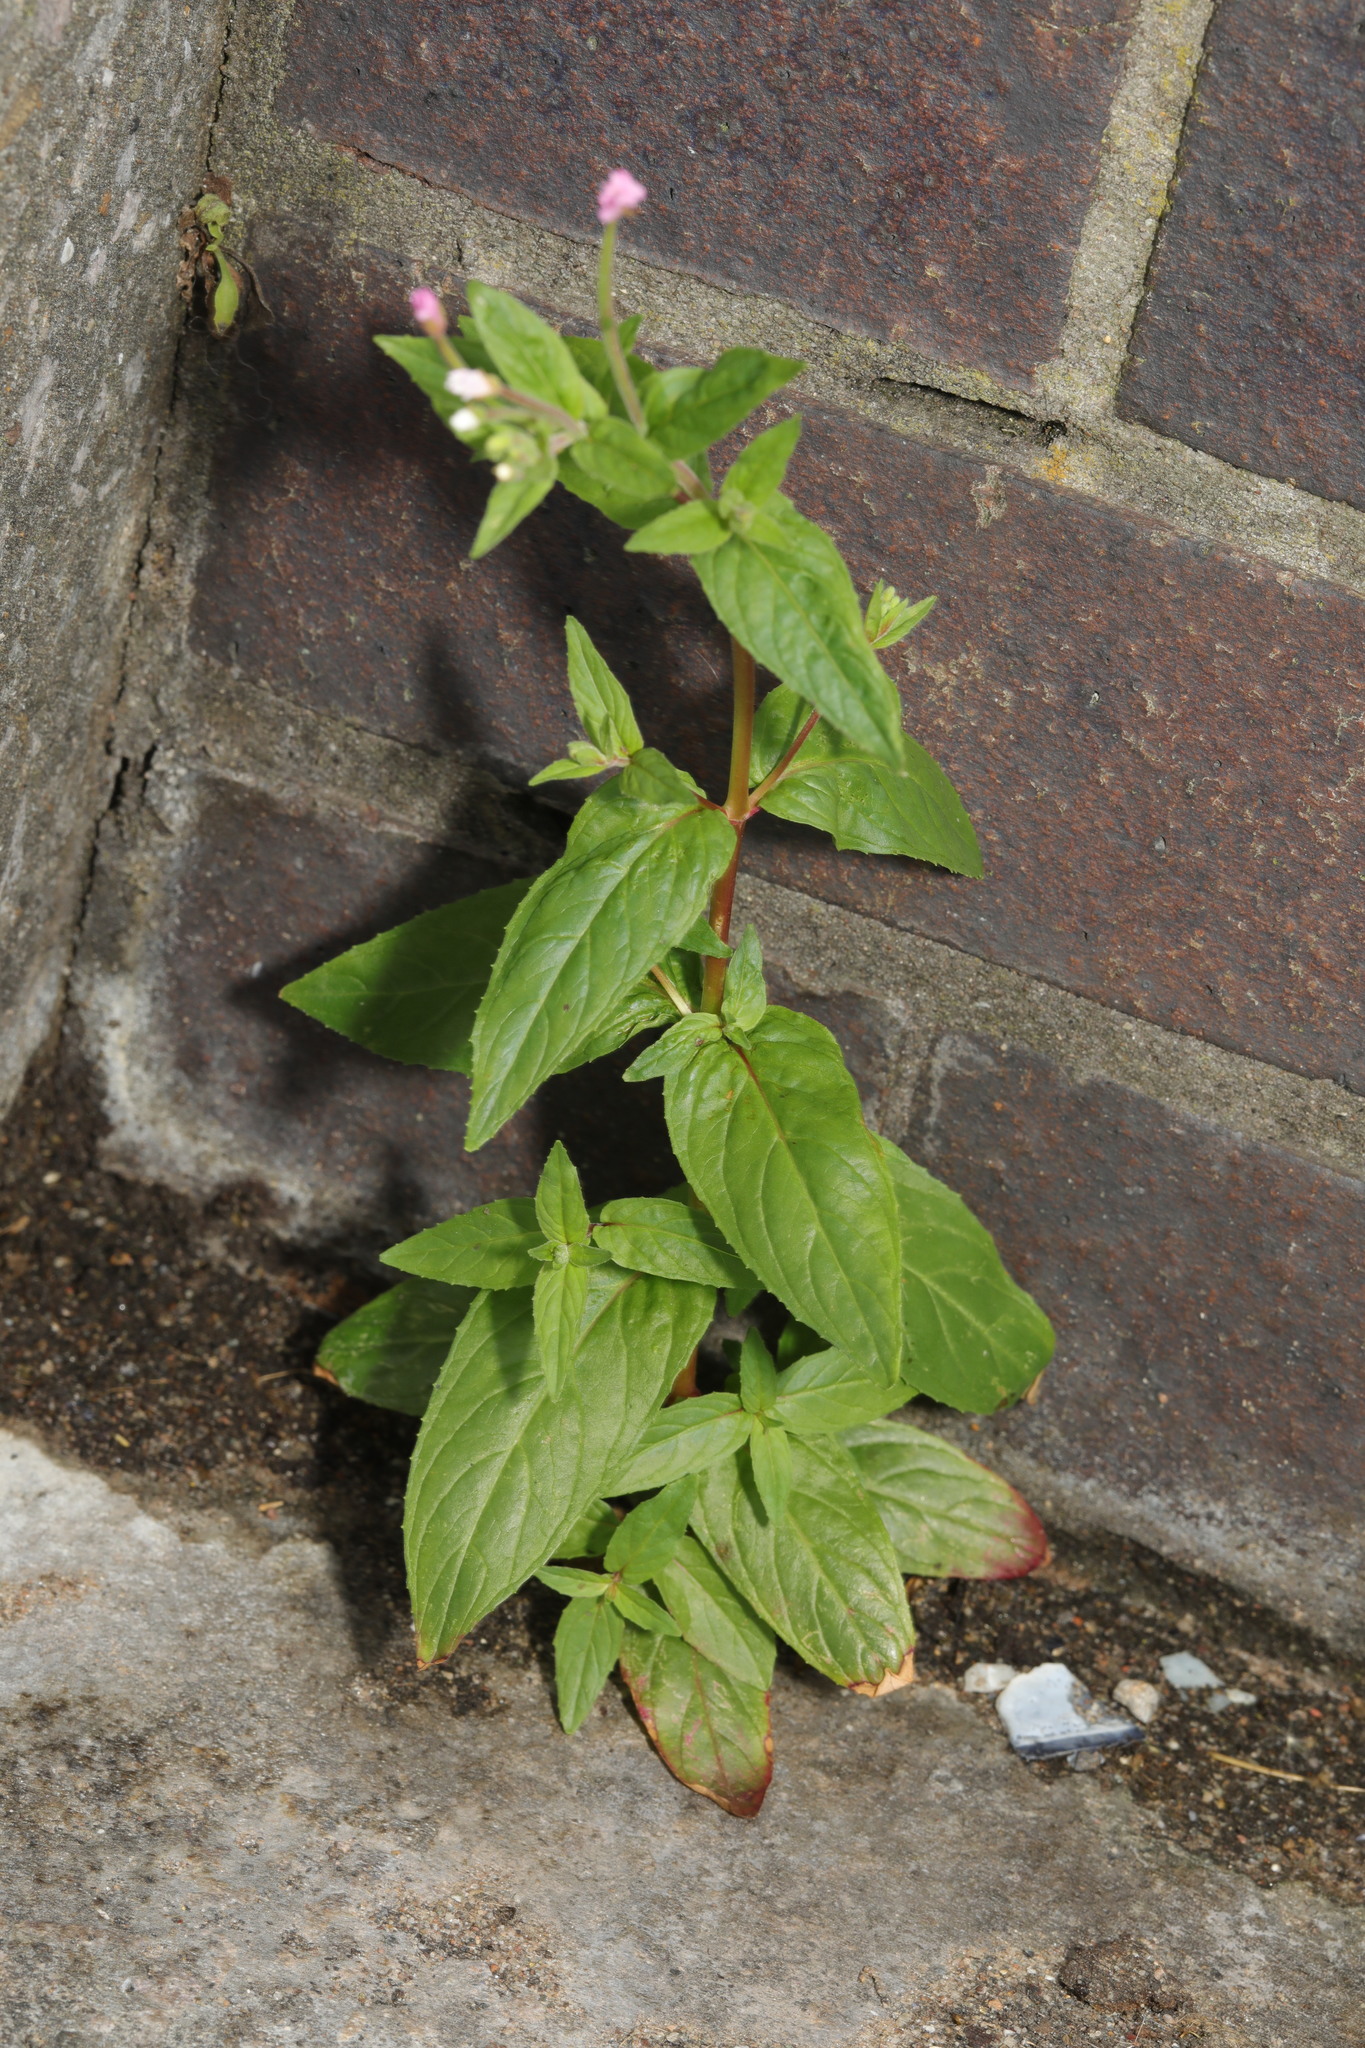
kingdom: Plantae
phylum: Tracheophyta
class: Magnoliopsida
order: Myrtales
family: Onagraceae
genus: Epilobium
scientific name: Epilobium montanum
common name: Broad-leaved willowherb
